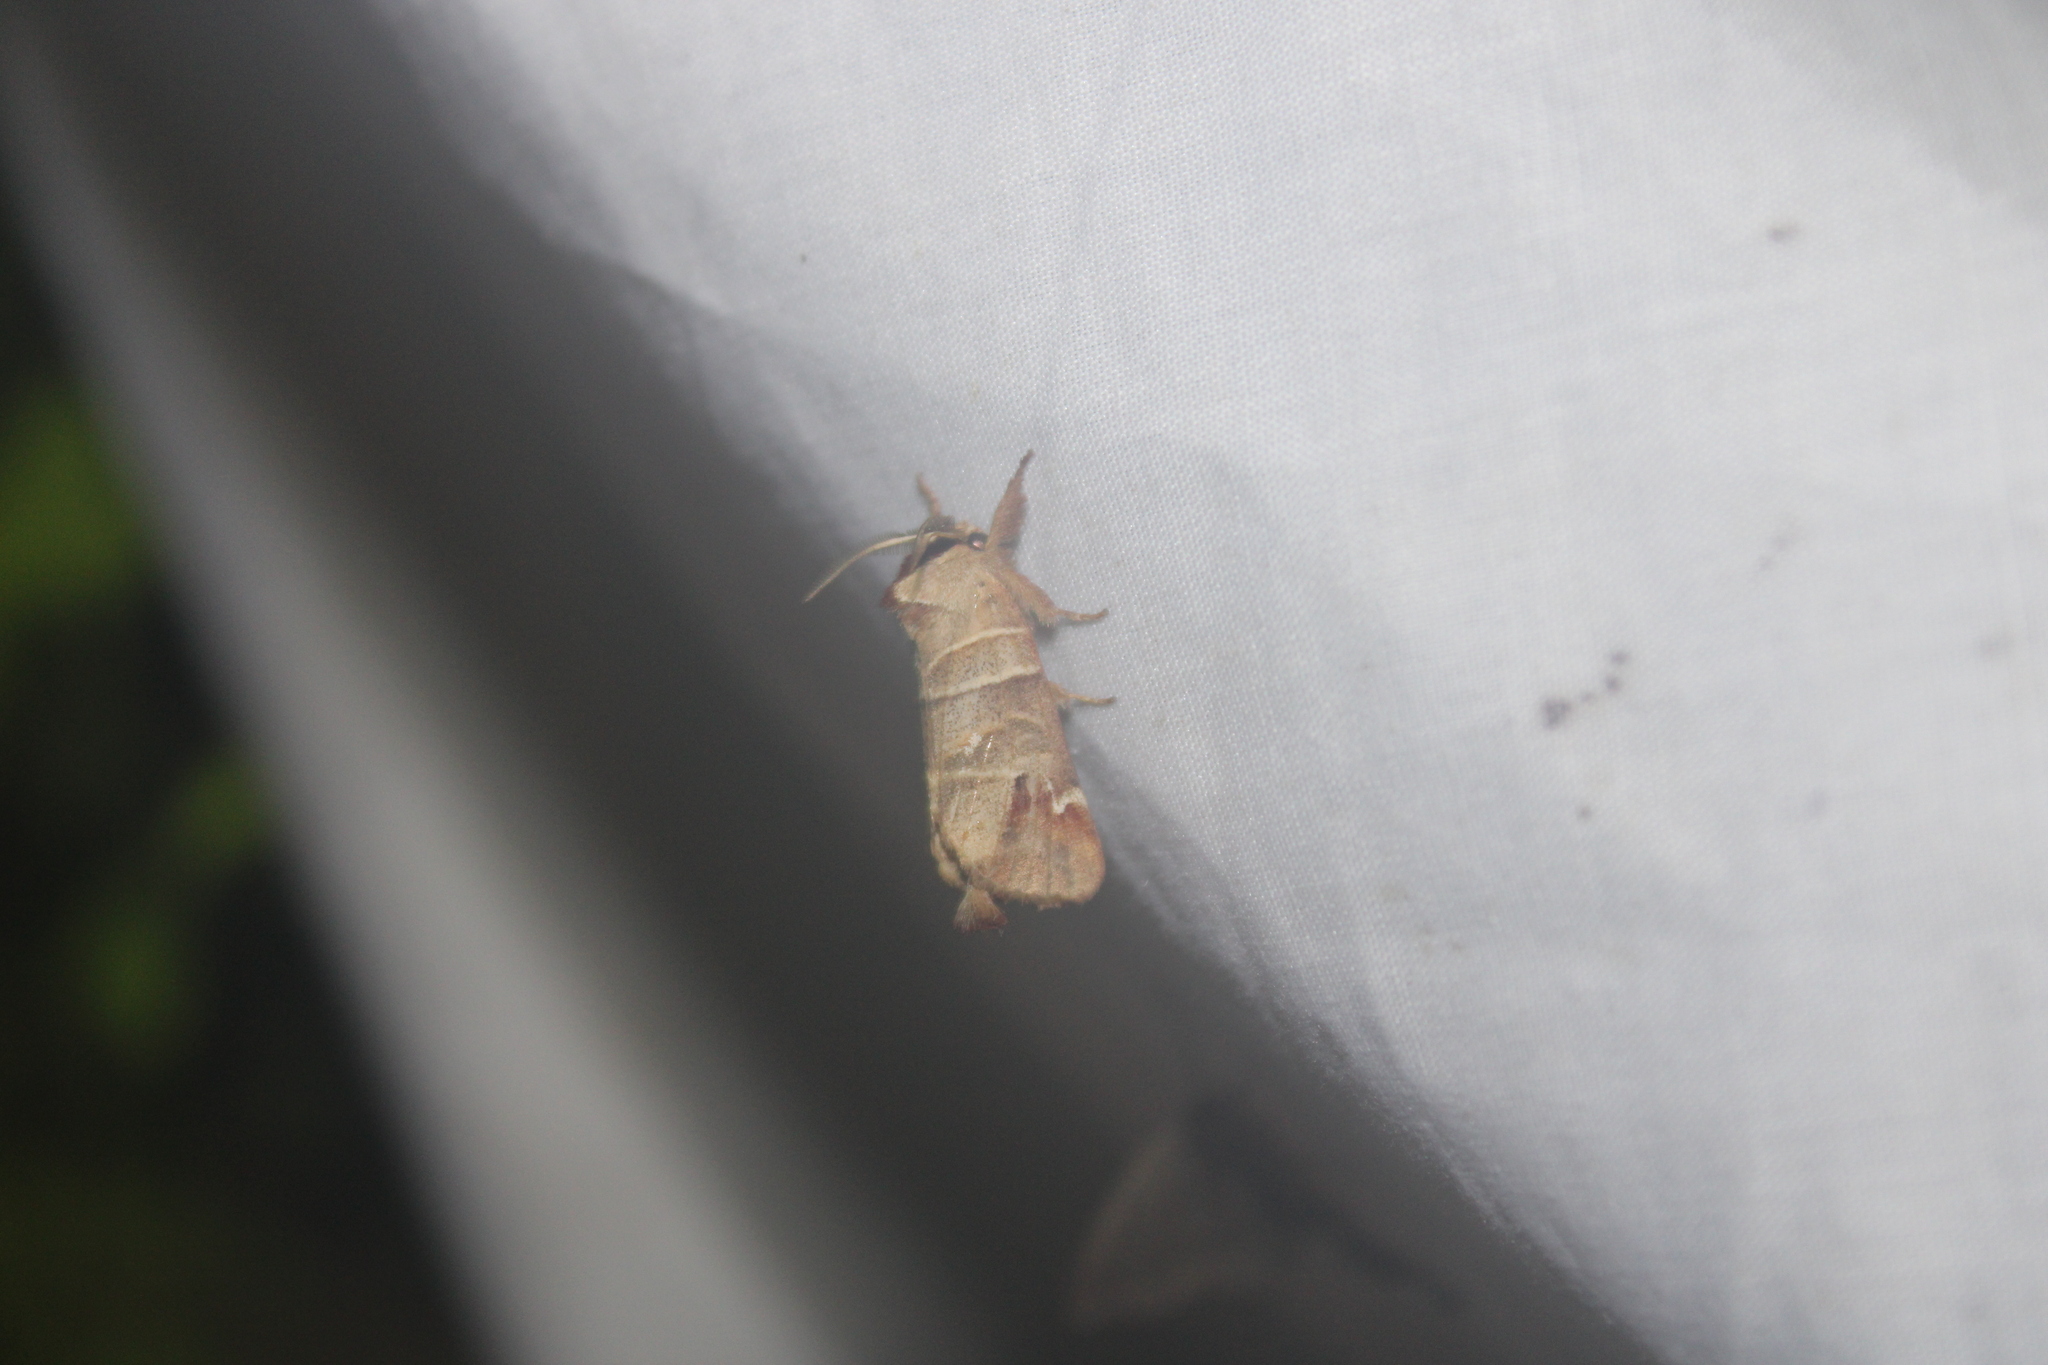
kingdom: Animalia
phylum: Arthropoda
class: Insecta
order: Lepidoptera
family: Notodontidae
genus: Clostera
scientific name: Clostera albosigma
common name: Sigmoid prominent
